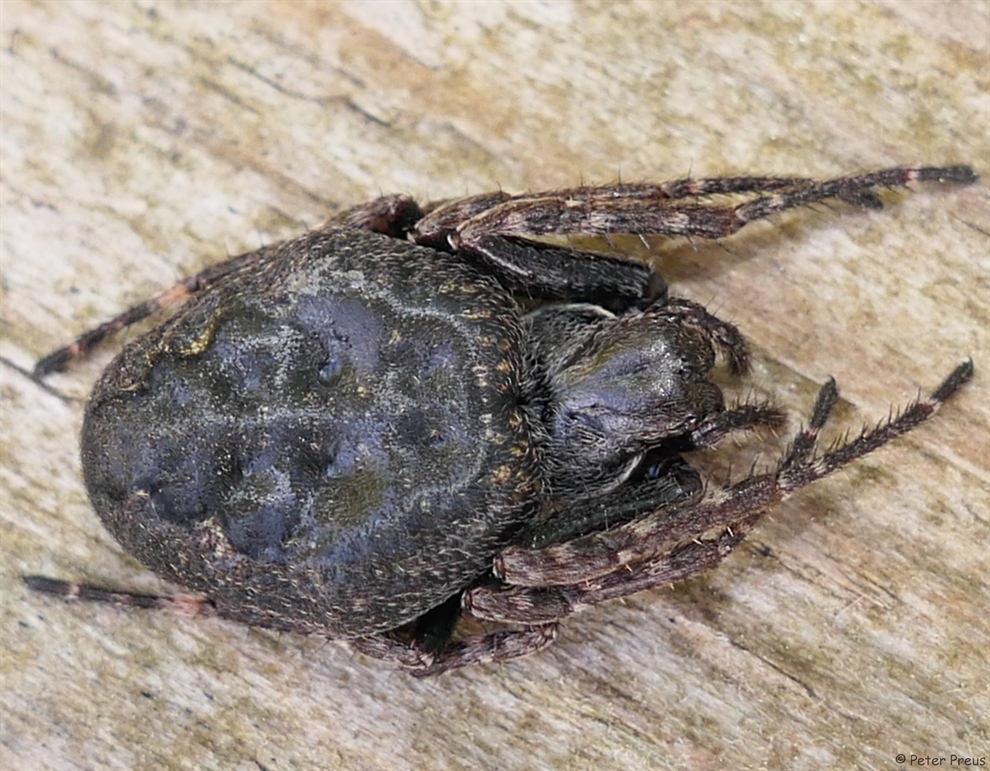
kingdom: Animalia
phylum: Arthropoda
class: Arachnida
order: Araneae
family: Araneidae
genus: Nuctenea
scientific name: Nuctenea umbratica
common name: Toad spider
